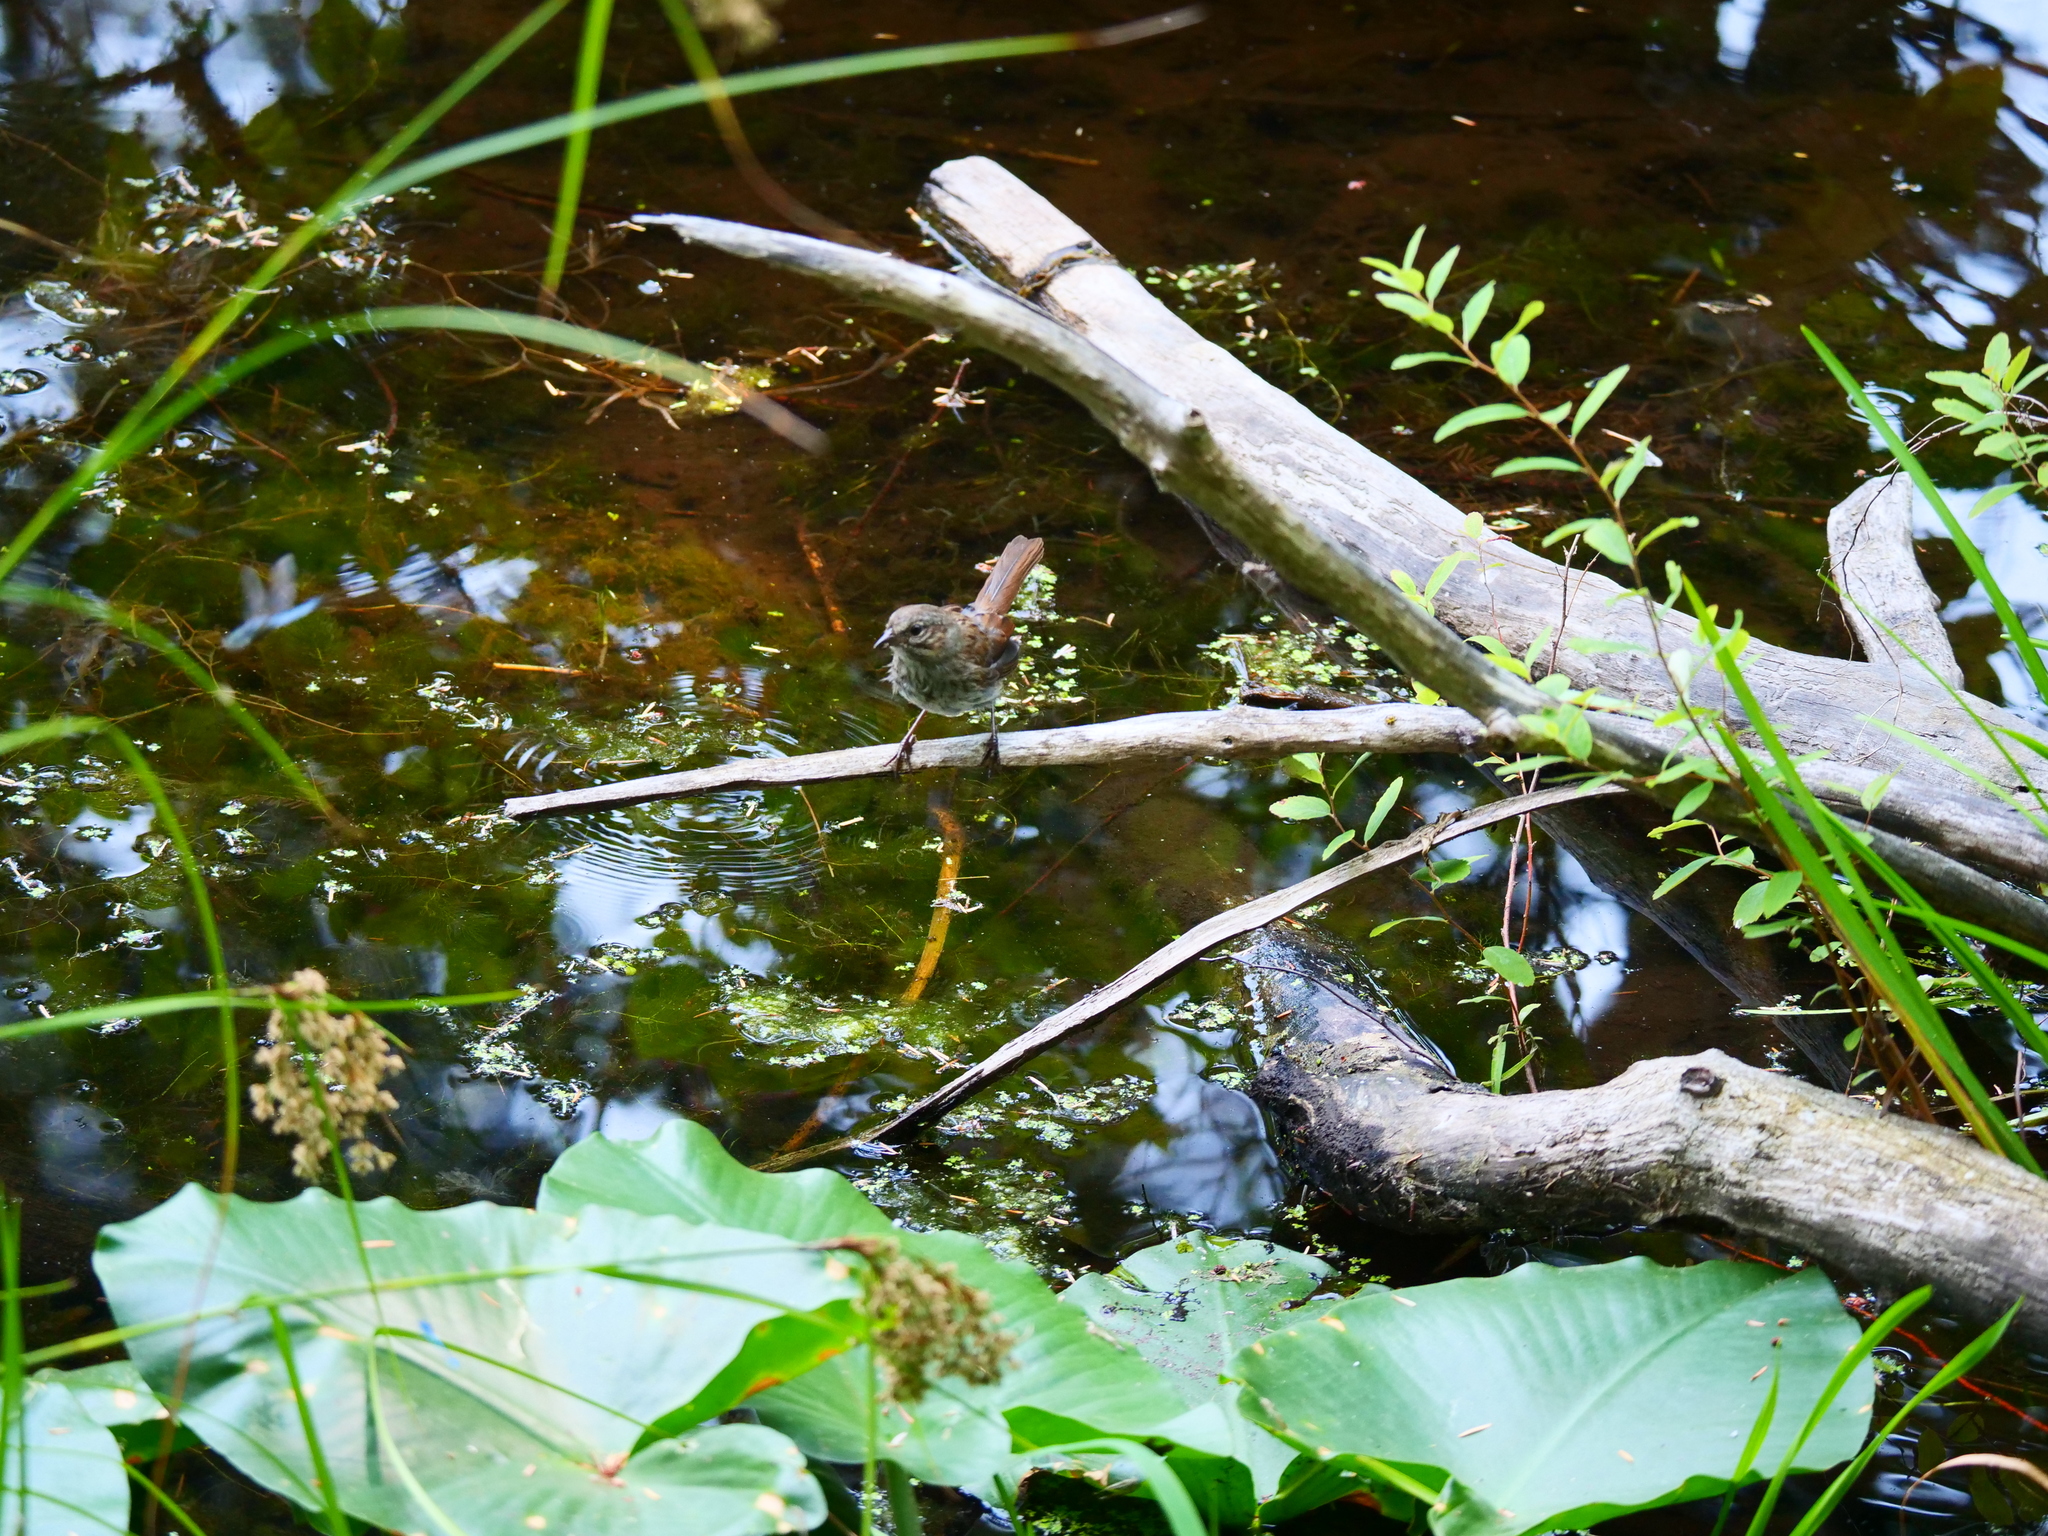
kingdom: Animalia
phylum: Chordata
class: Aves
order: Passeriformes
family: Passerellidae
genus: Melospiza
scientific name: Melospiza melodia
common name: Song sparrow
